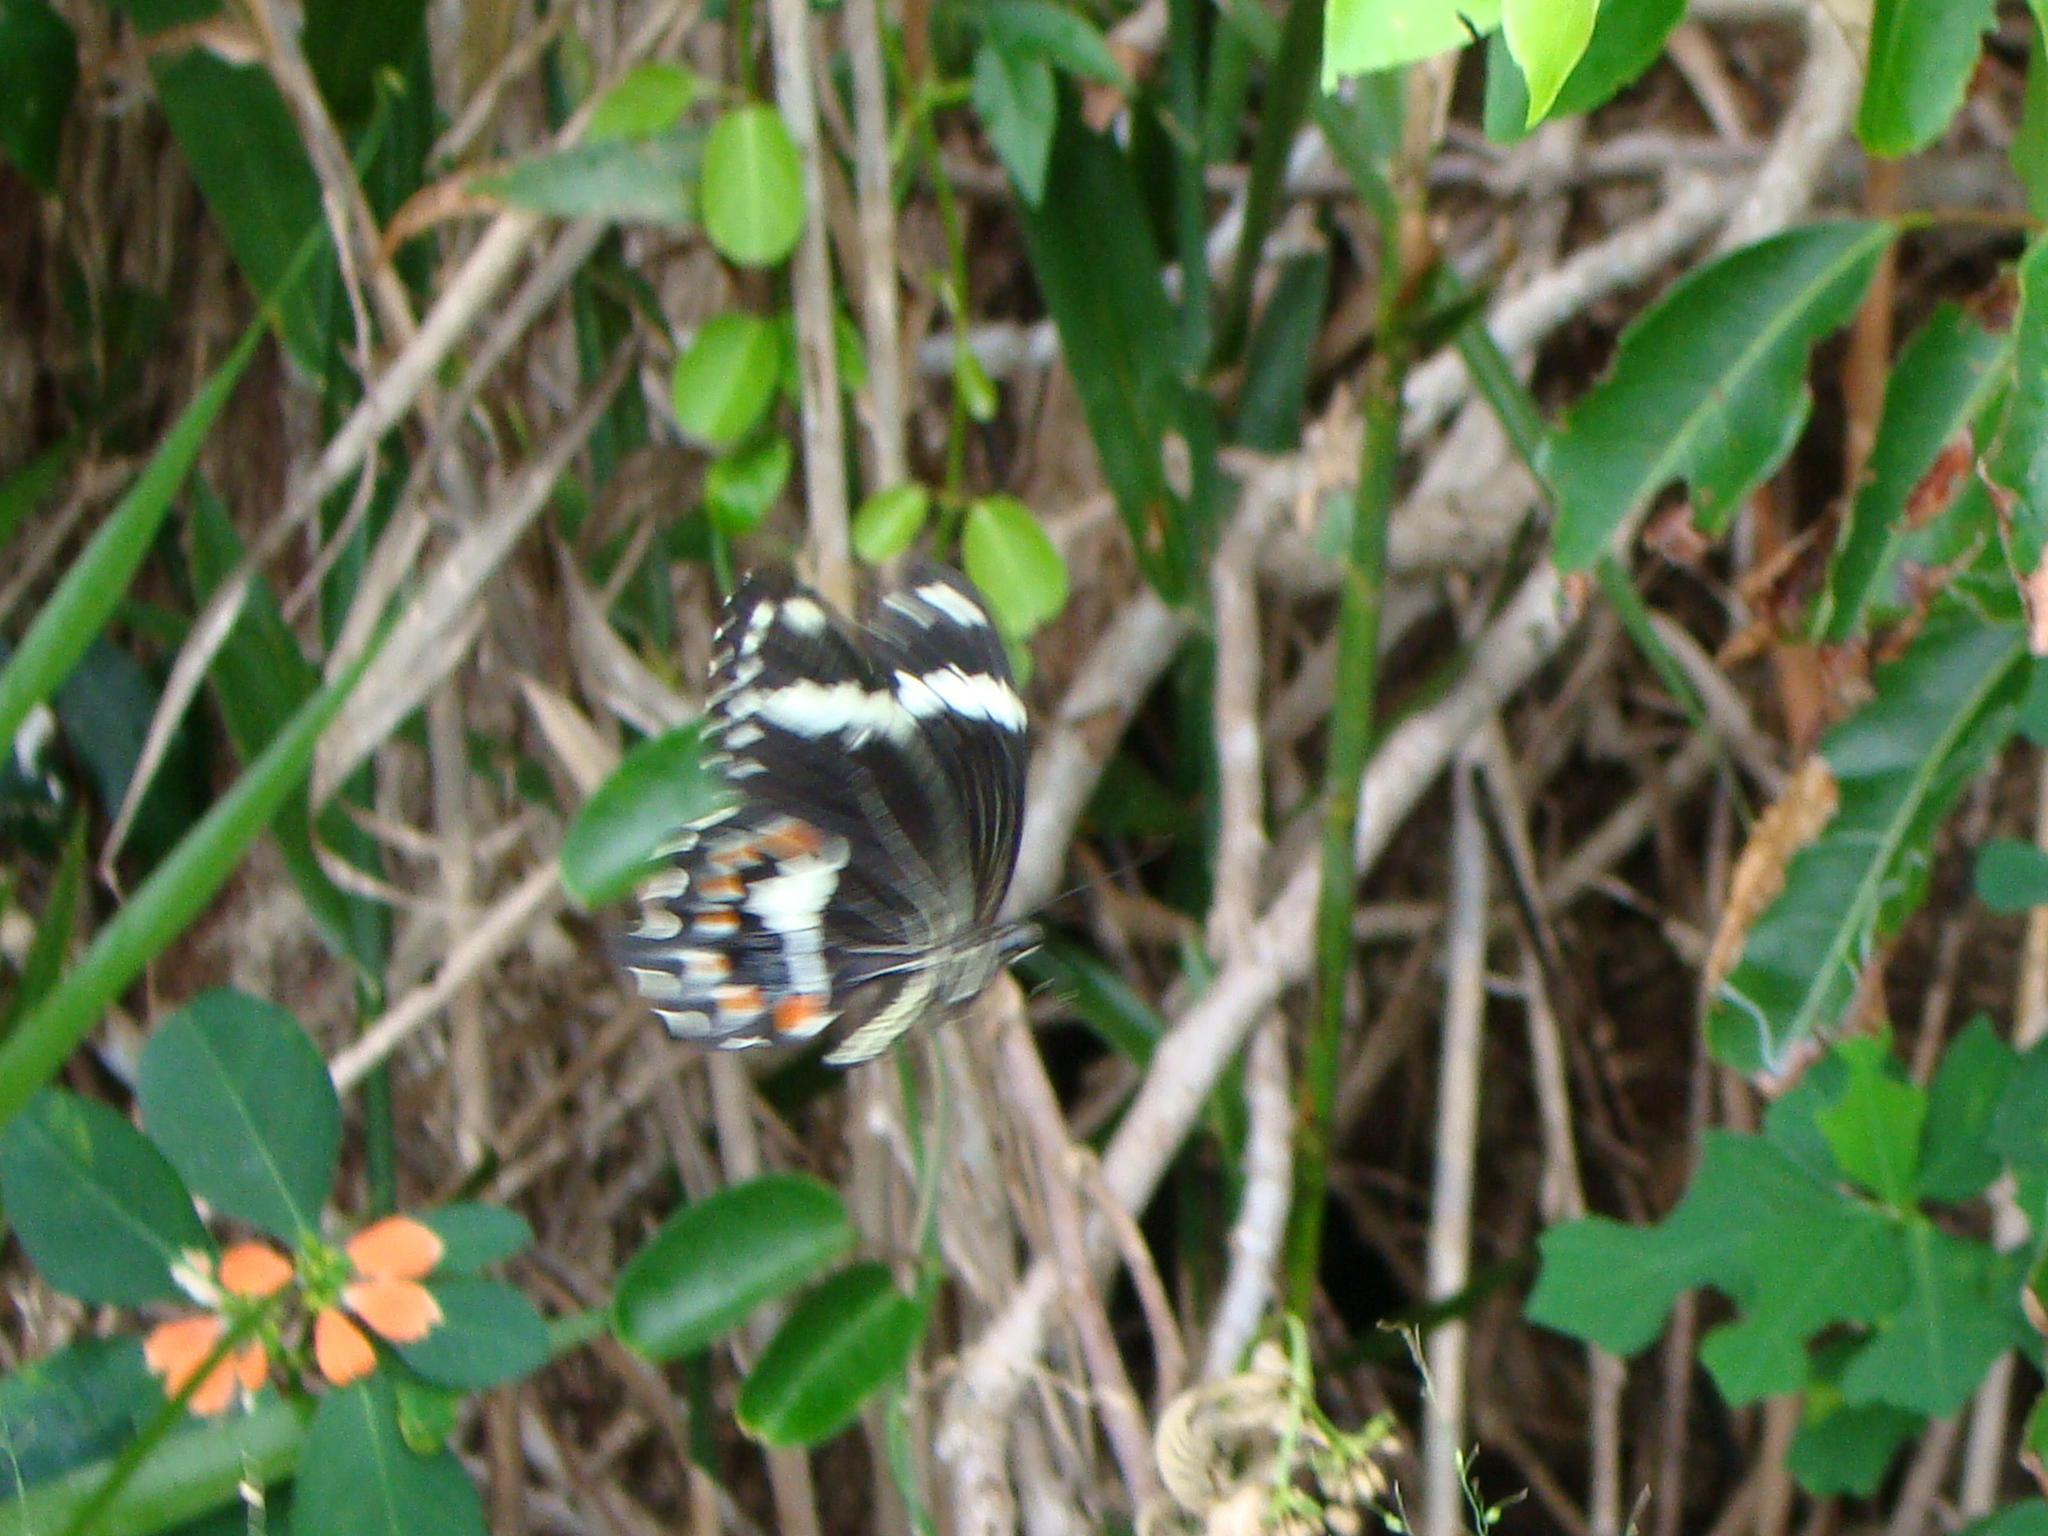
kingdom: Animalia
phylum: Arthropoda
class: Insecta
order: Lepidoptera
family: Papilionidae
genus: Papilio
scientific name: Papilio amynthor
